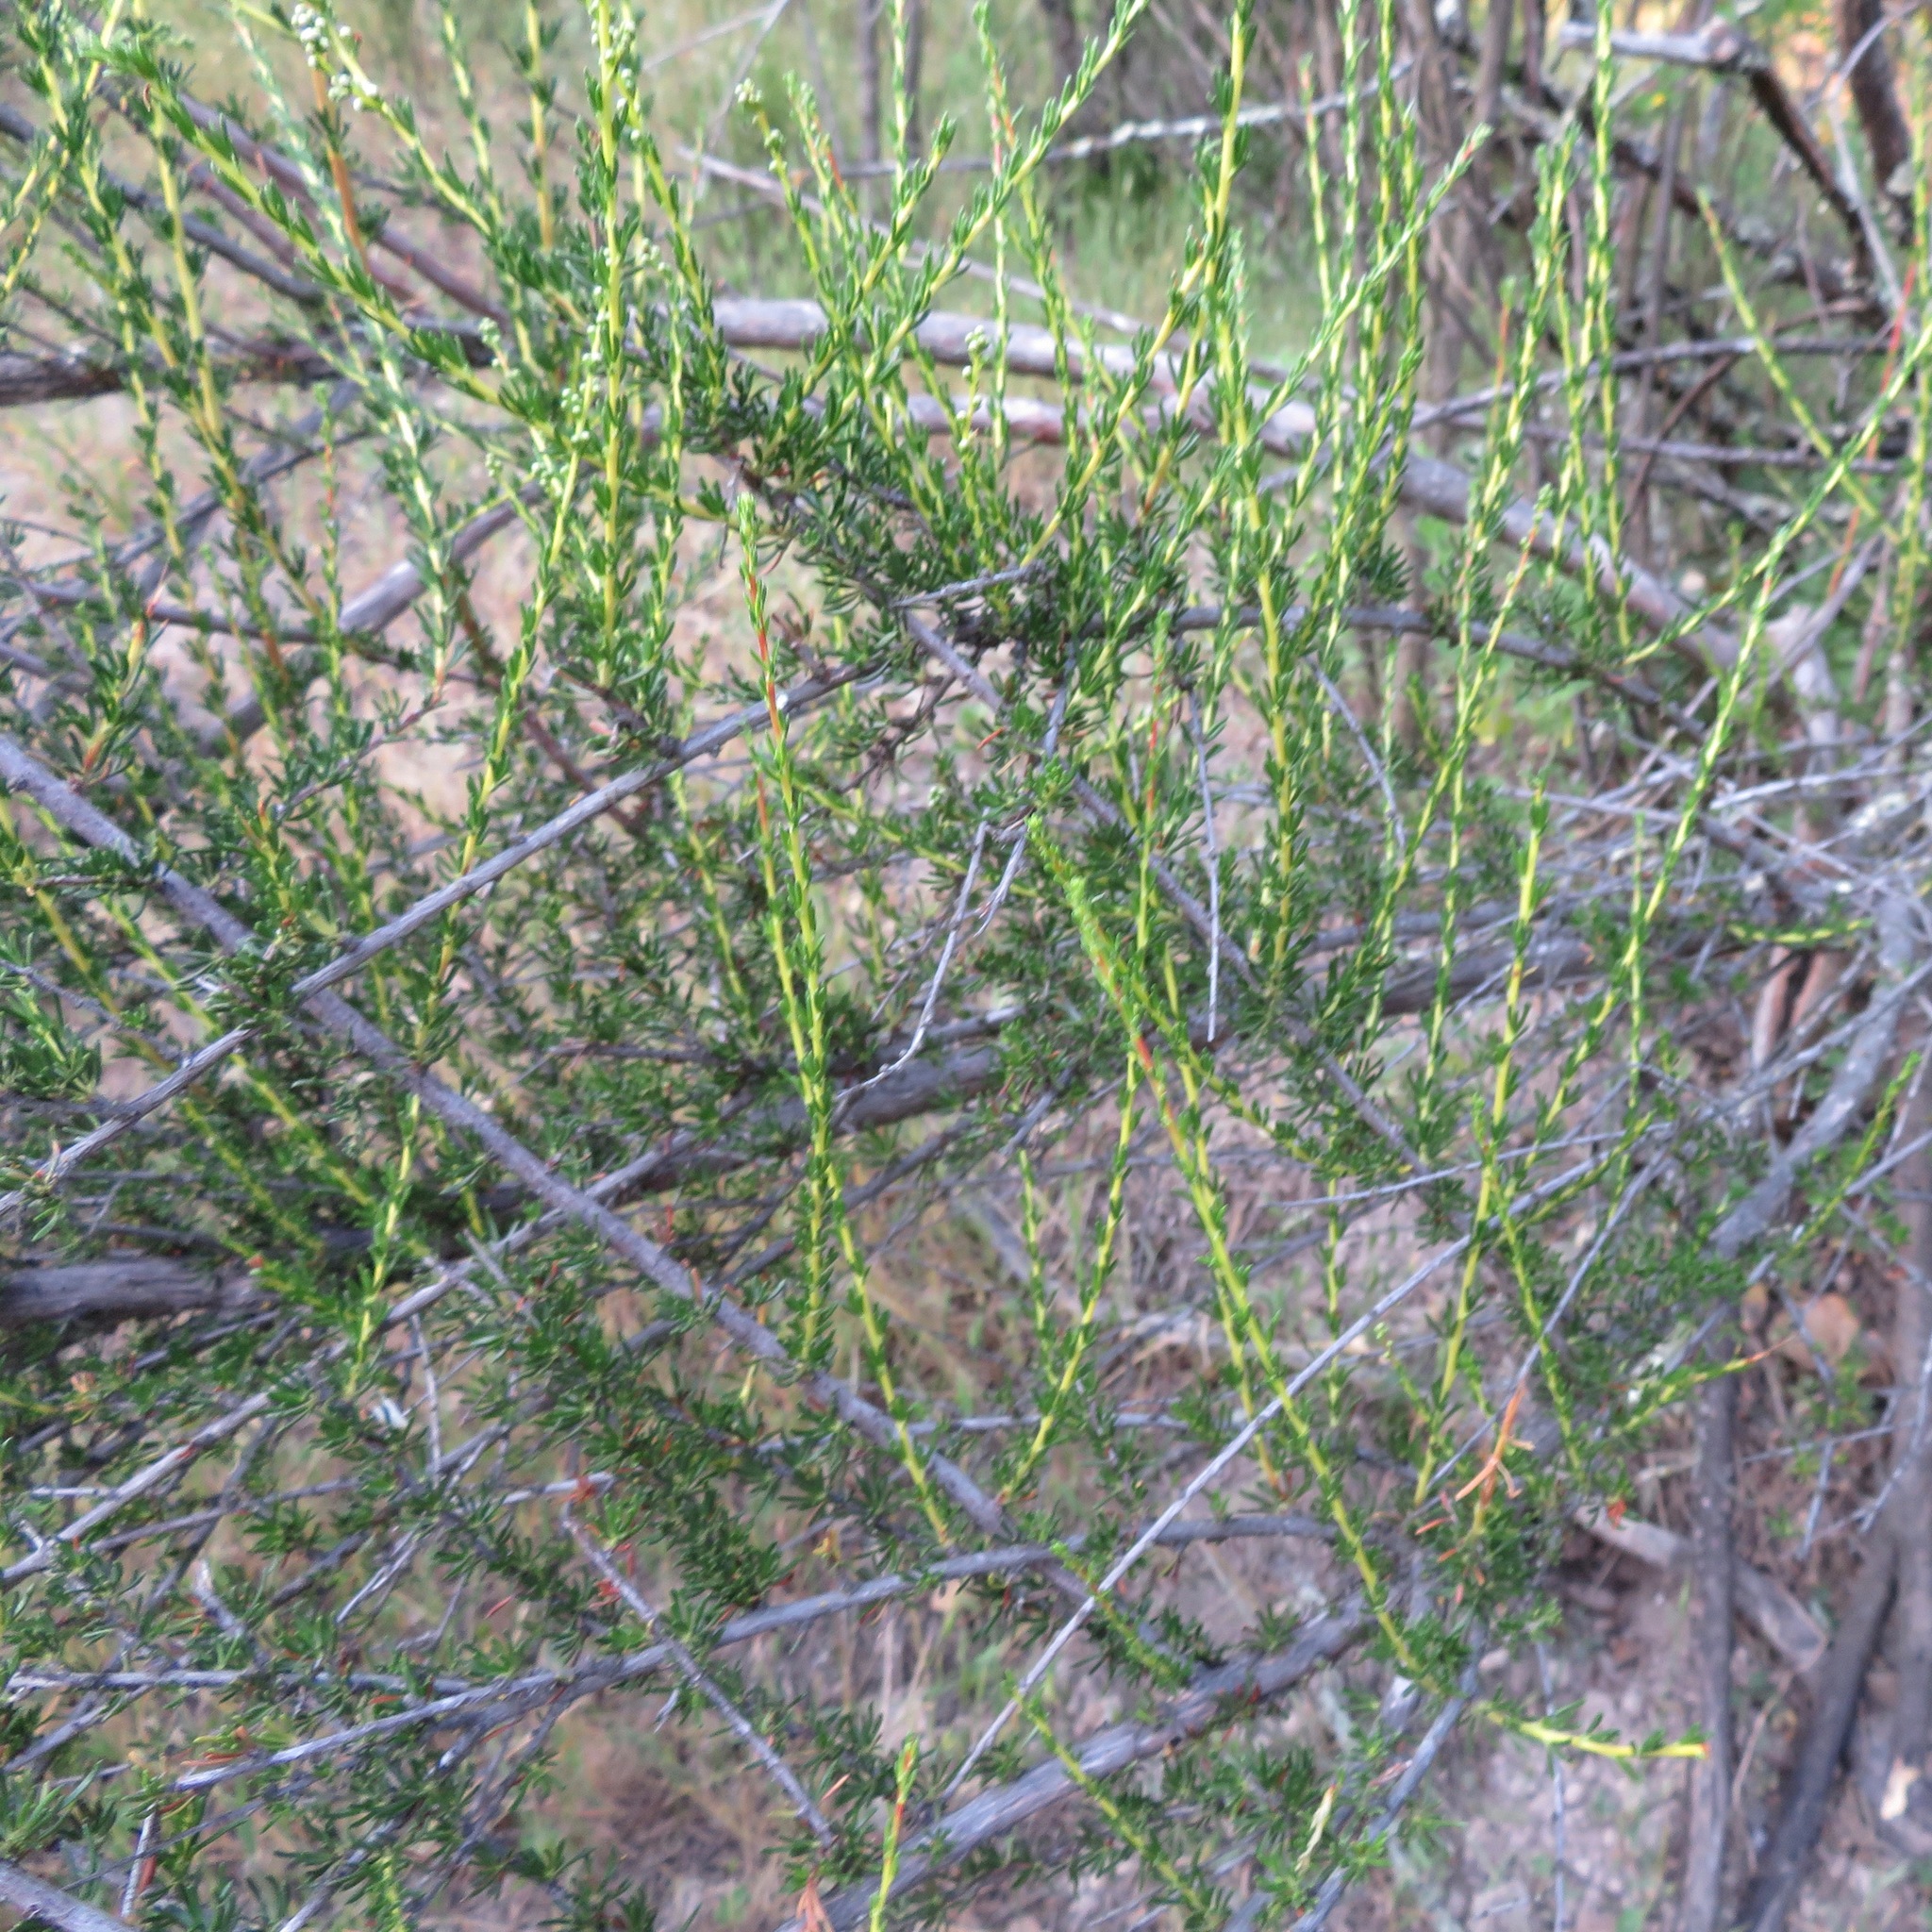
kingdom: Plantae
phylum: Tracheophyta
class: Magnoliopsida
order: Rosales
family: Rosaceae
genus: Adenostoma
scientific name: Adenostoma fasciculatum
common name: Chamise
